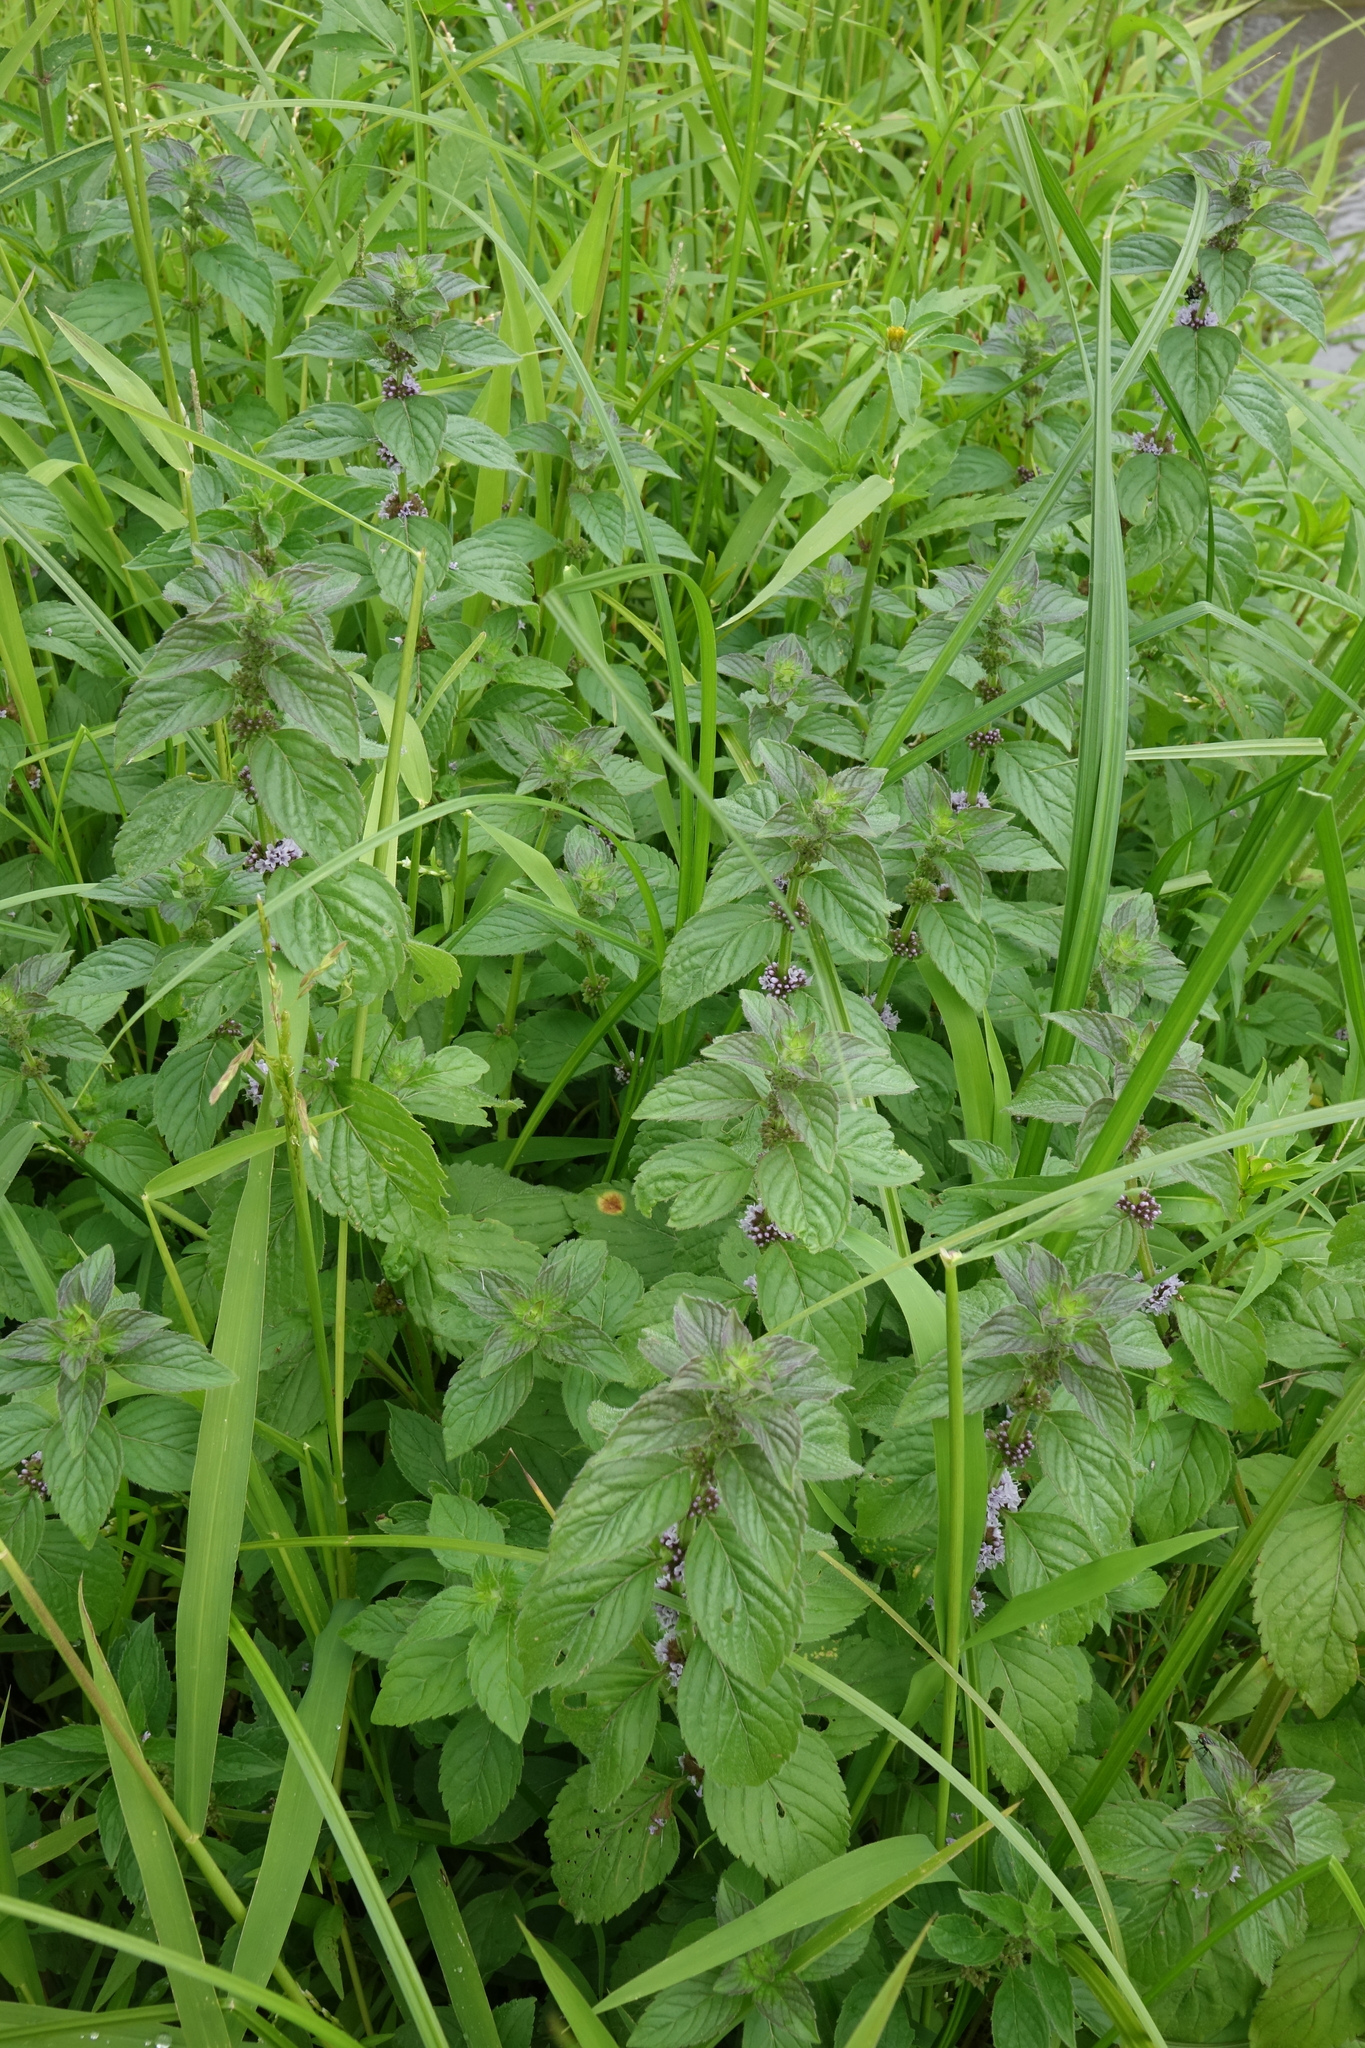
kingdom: Plantae
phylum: Tracheophyta
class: Magnoliopsida
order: Lamiales
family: Lamiaceae
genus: Mentha
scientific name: Mentha arvensis
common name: Corn mint
